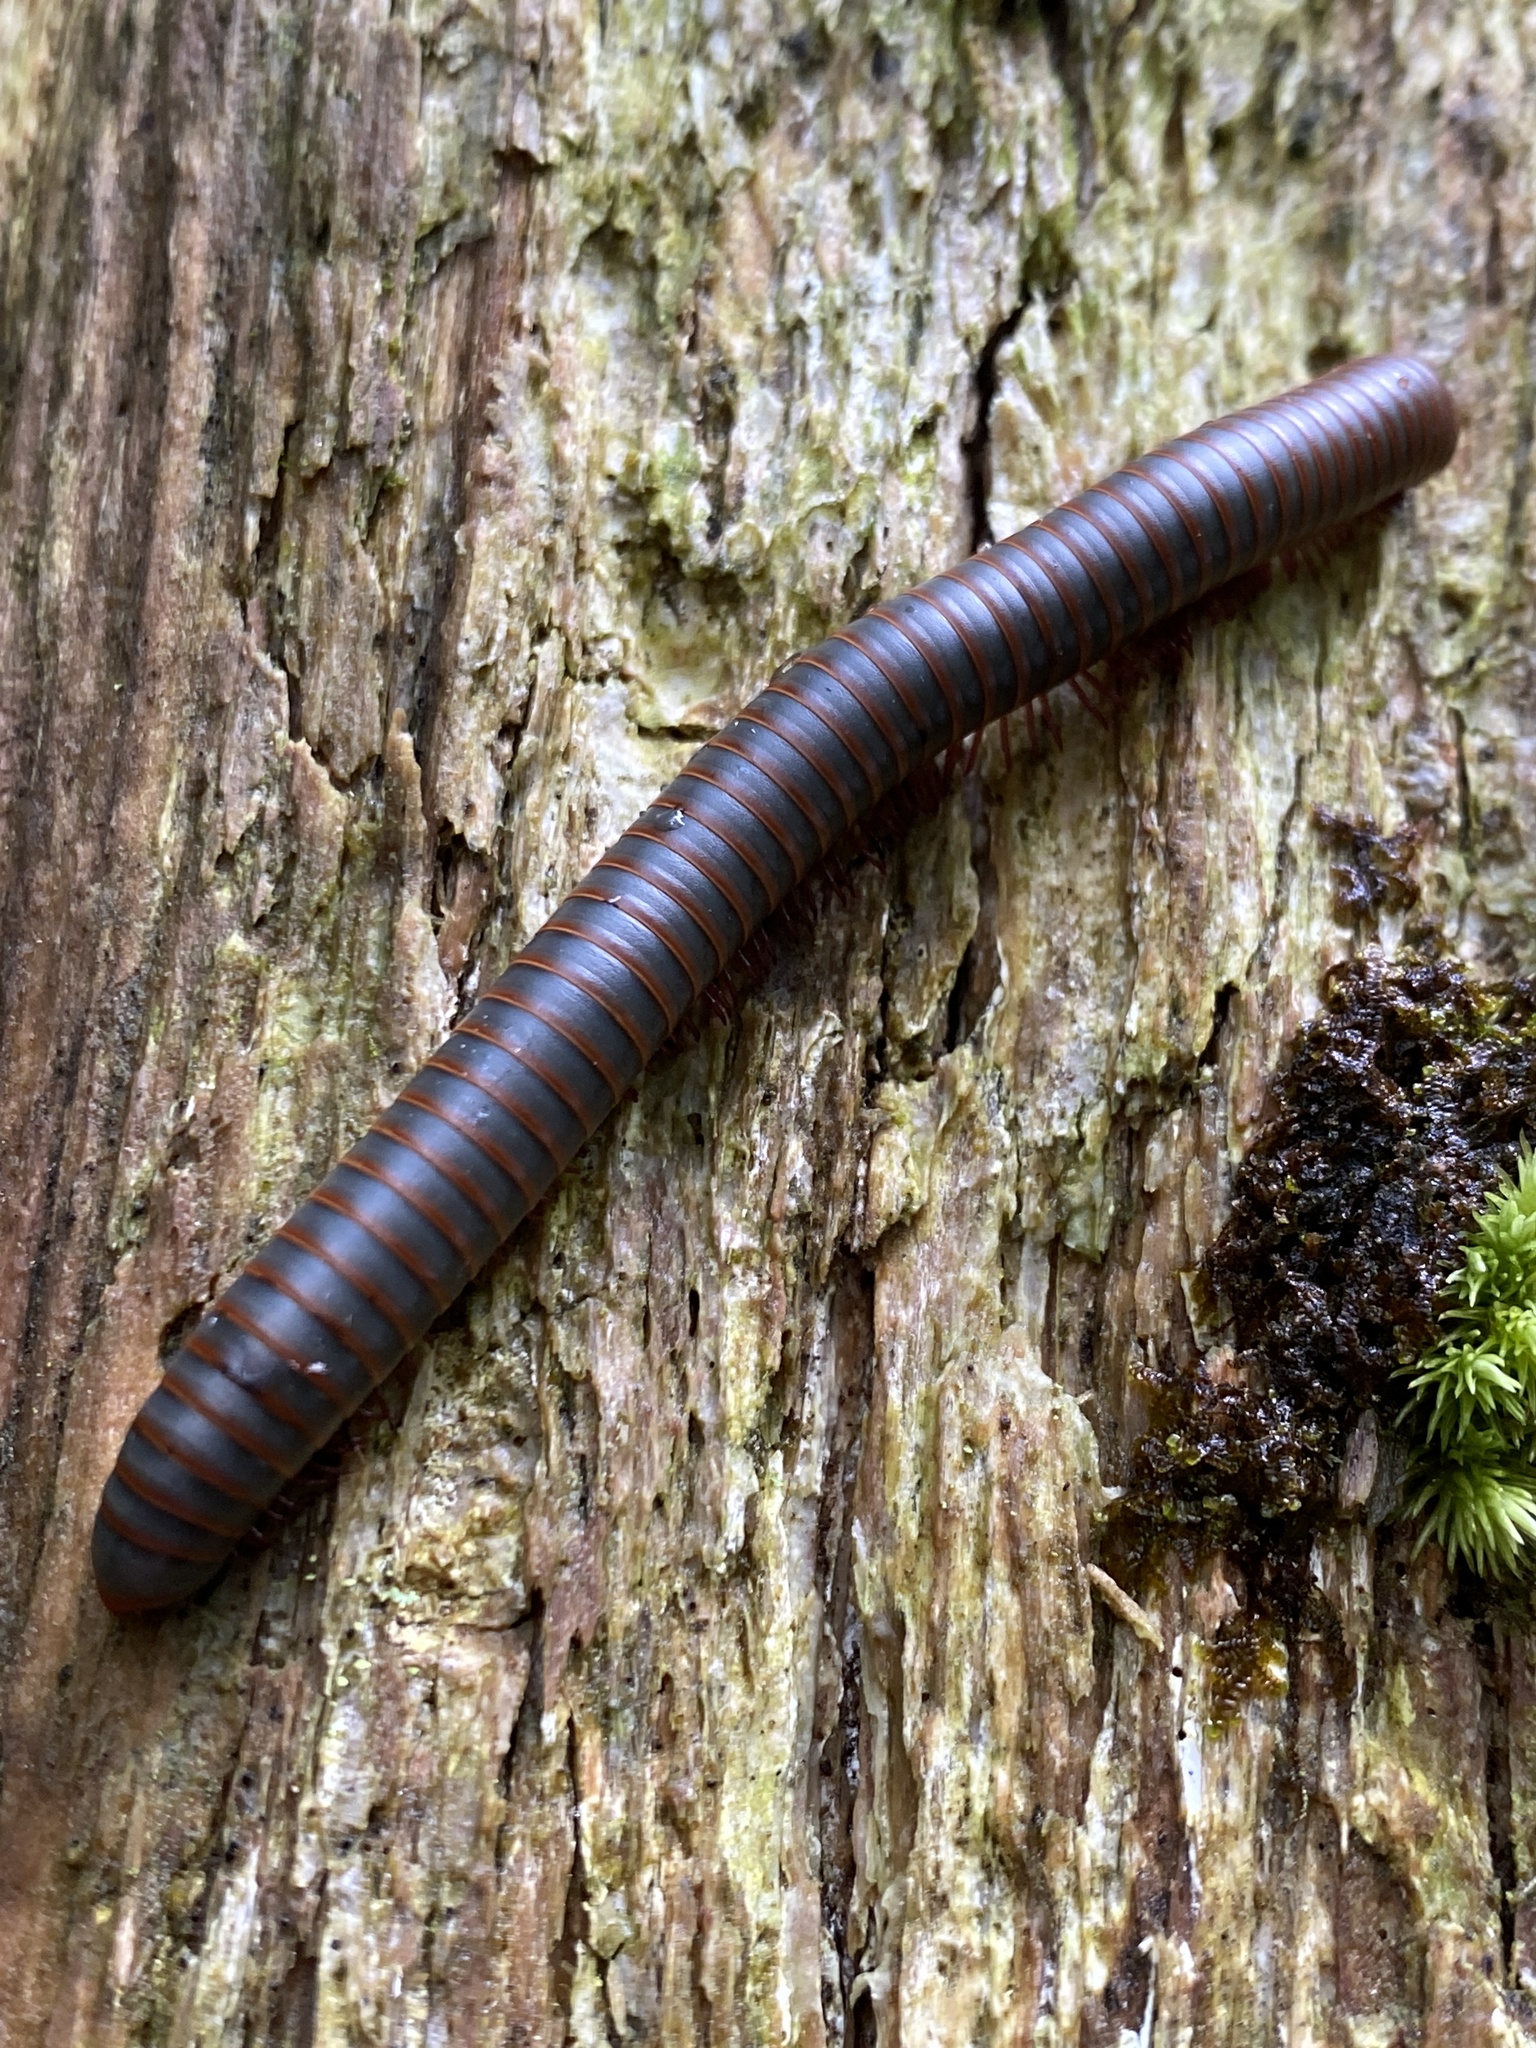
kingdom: Animalia
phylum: Arthropoda
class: Diplopoda
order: Spirobolida
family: Spirobolidae
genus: Narceus
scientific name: Narceus
